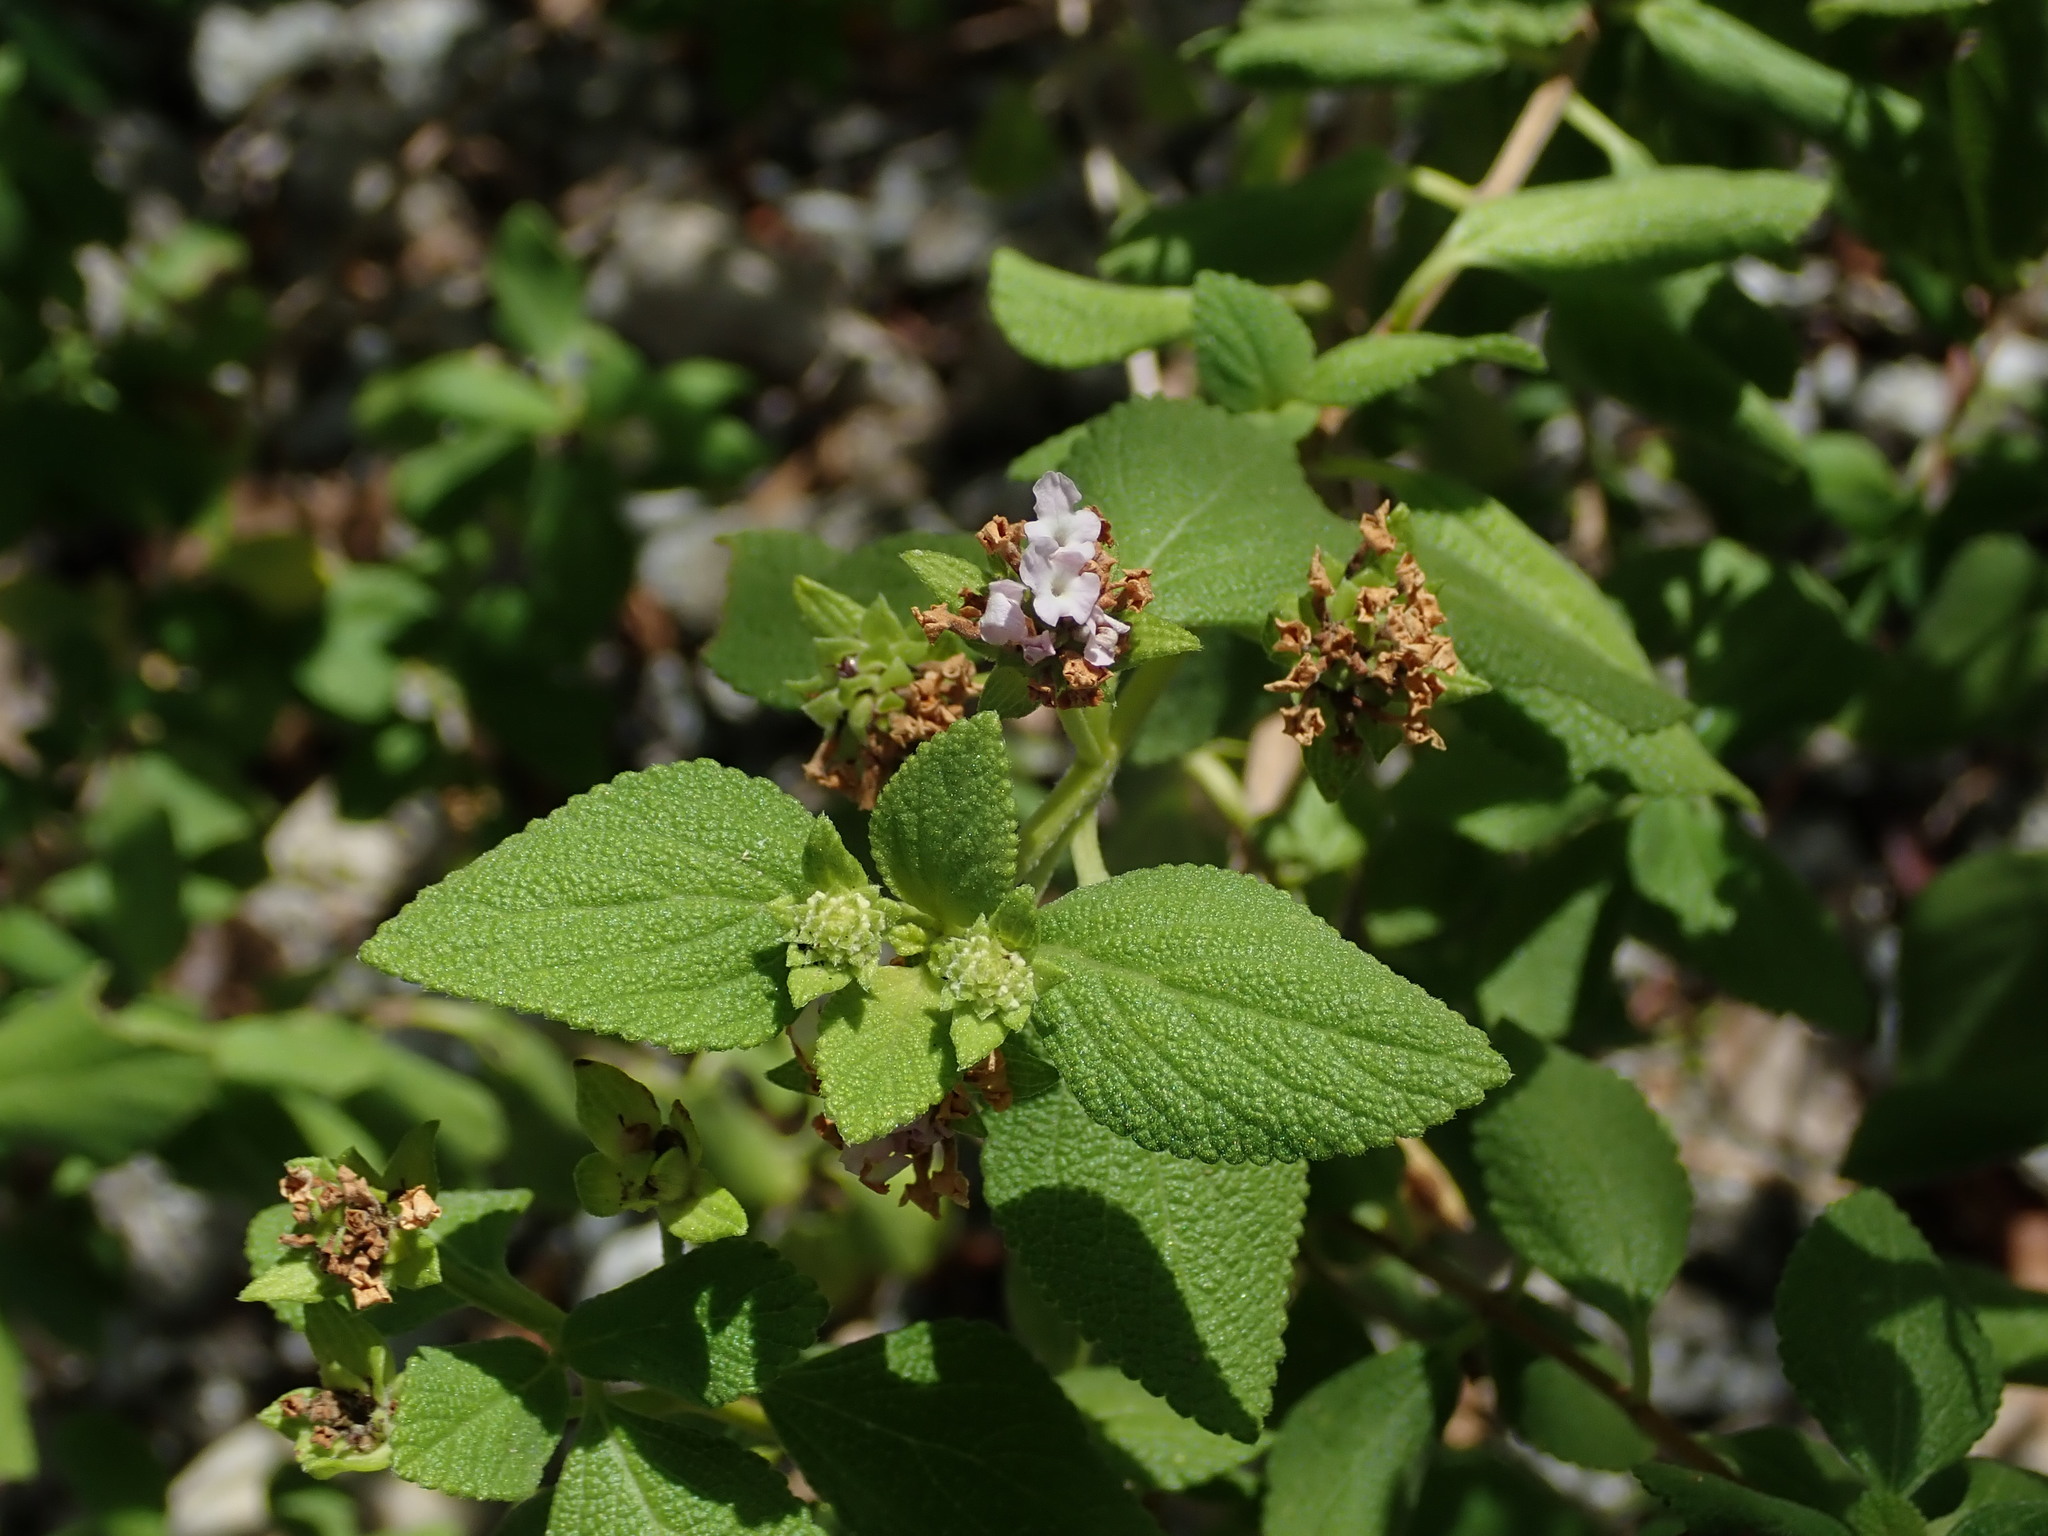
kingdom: Plantae
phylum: Tracheophyta
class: Magnoliopsida
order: Lamiales
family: Verbenaceae
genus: Lantana
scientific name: Lantana involucrata
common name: Black sage
